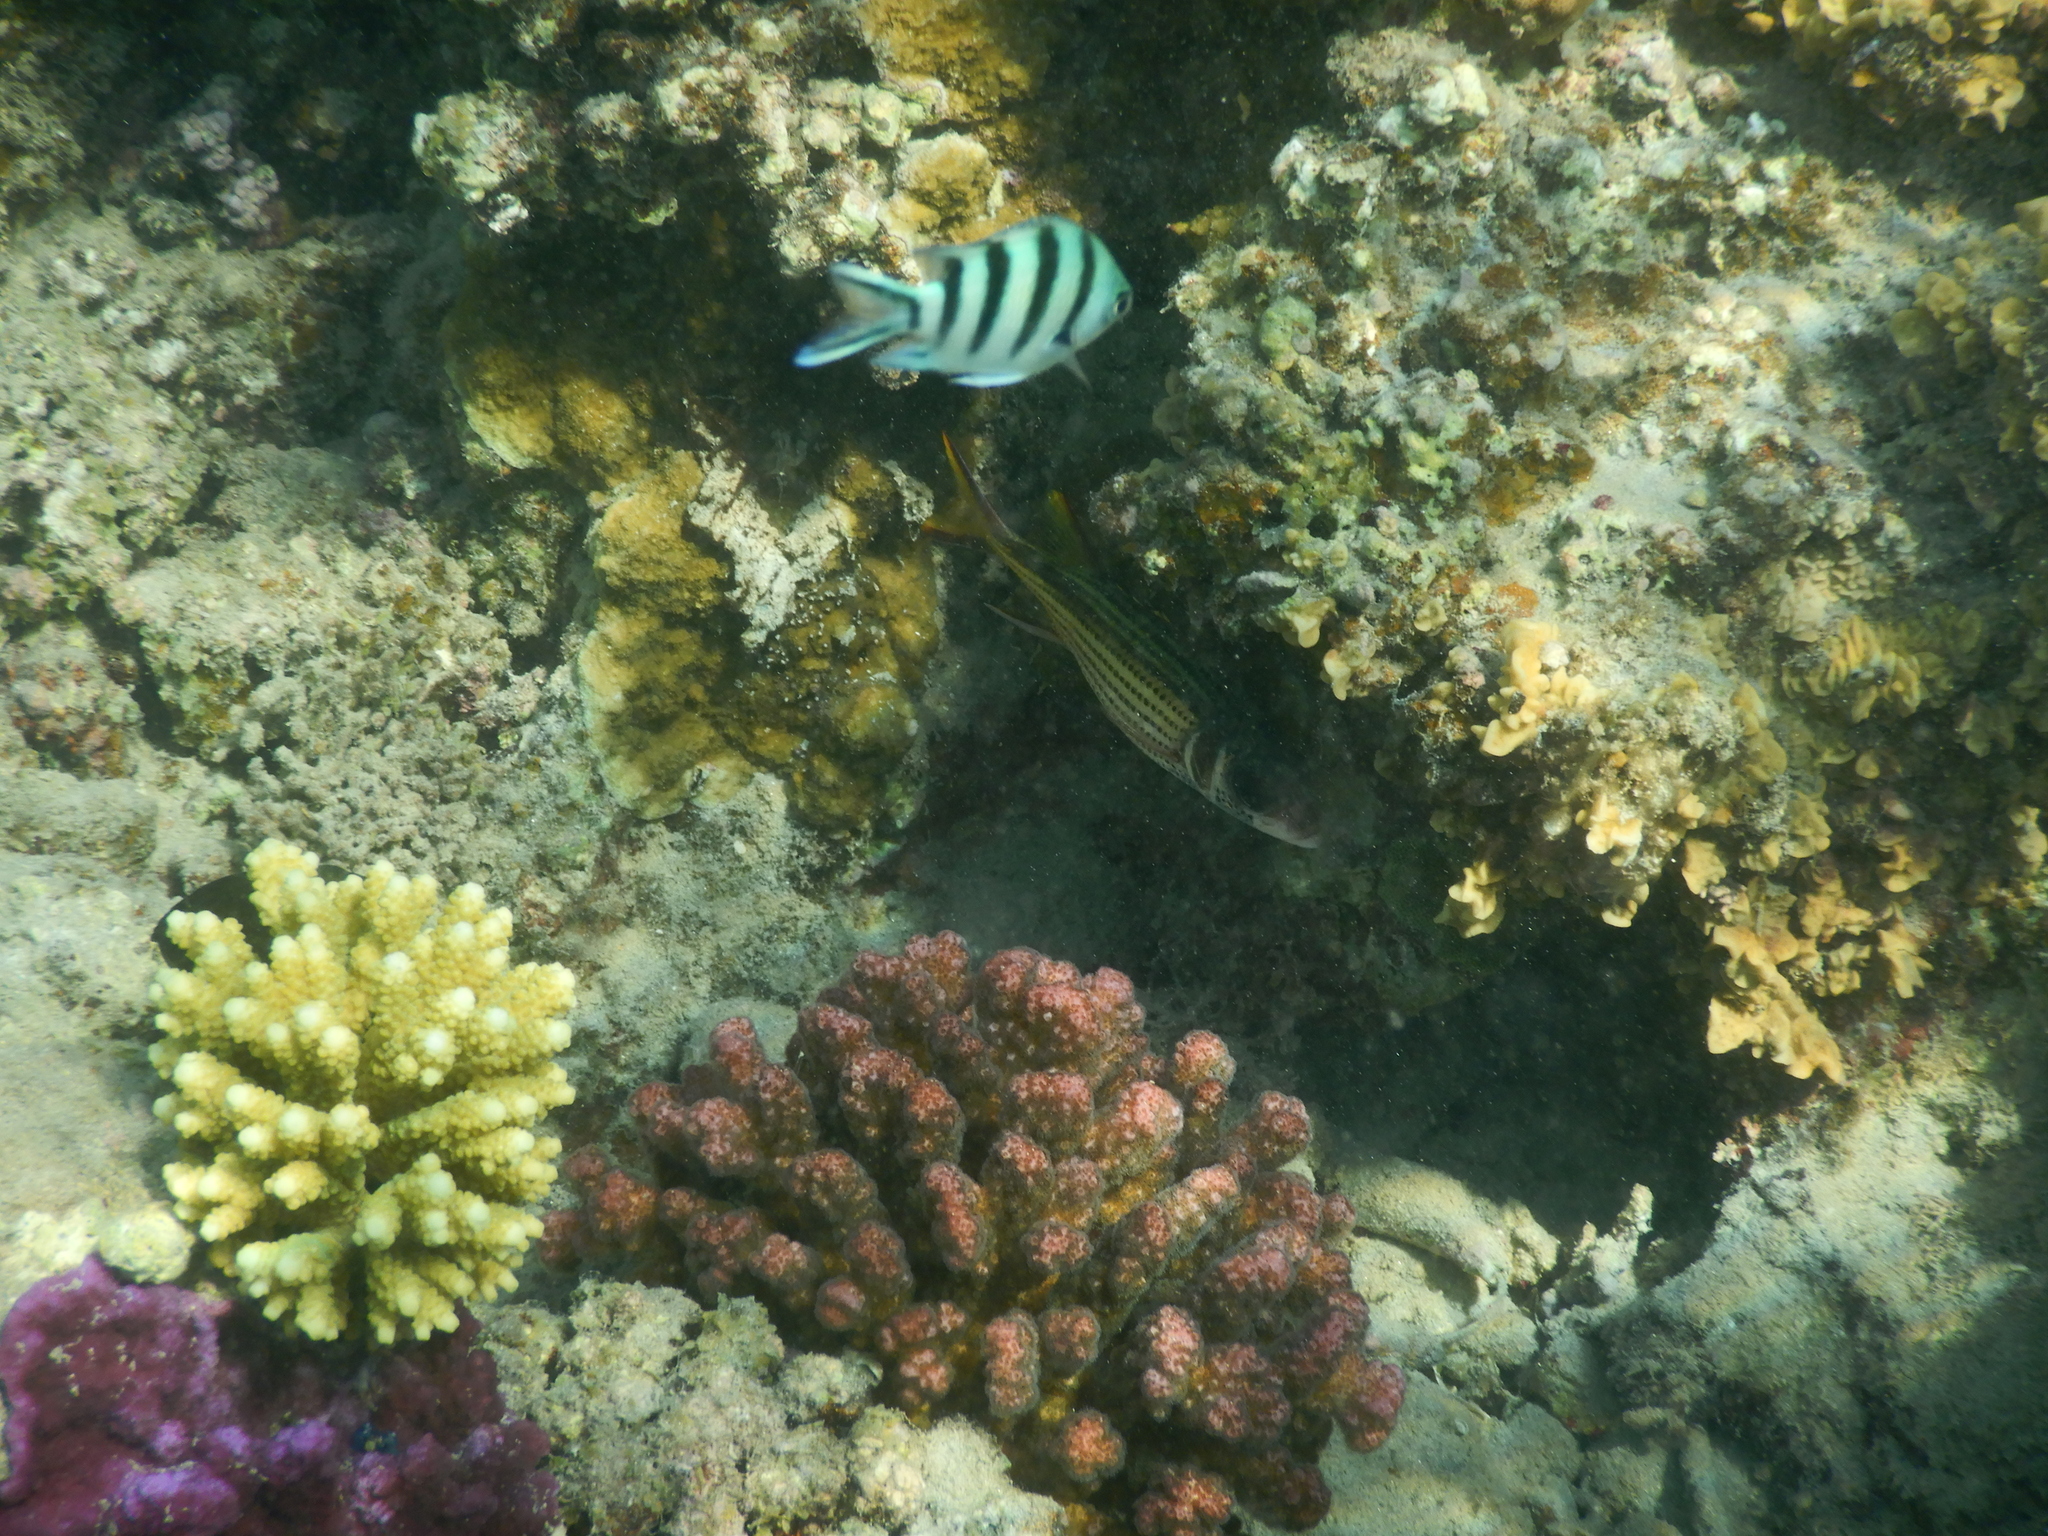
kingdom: Animalia
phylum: Chordata
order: Beryciformes
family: Holocentridae
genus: Neoniphon
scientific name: Neoniphon sammara
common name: Sammara squirrelfish
